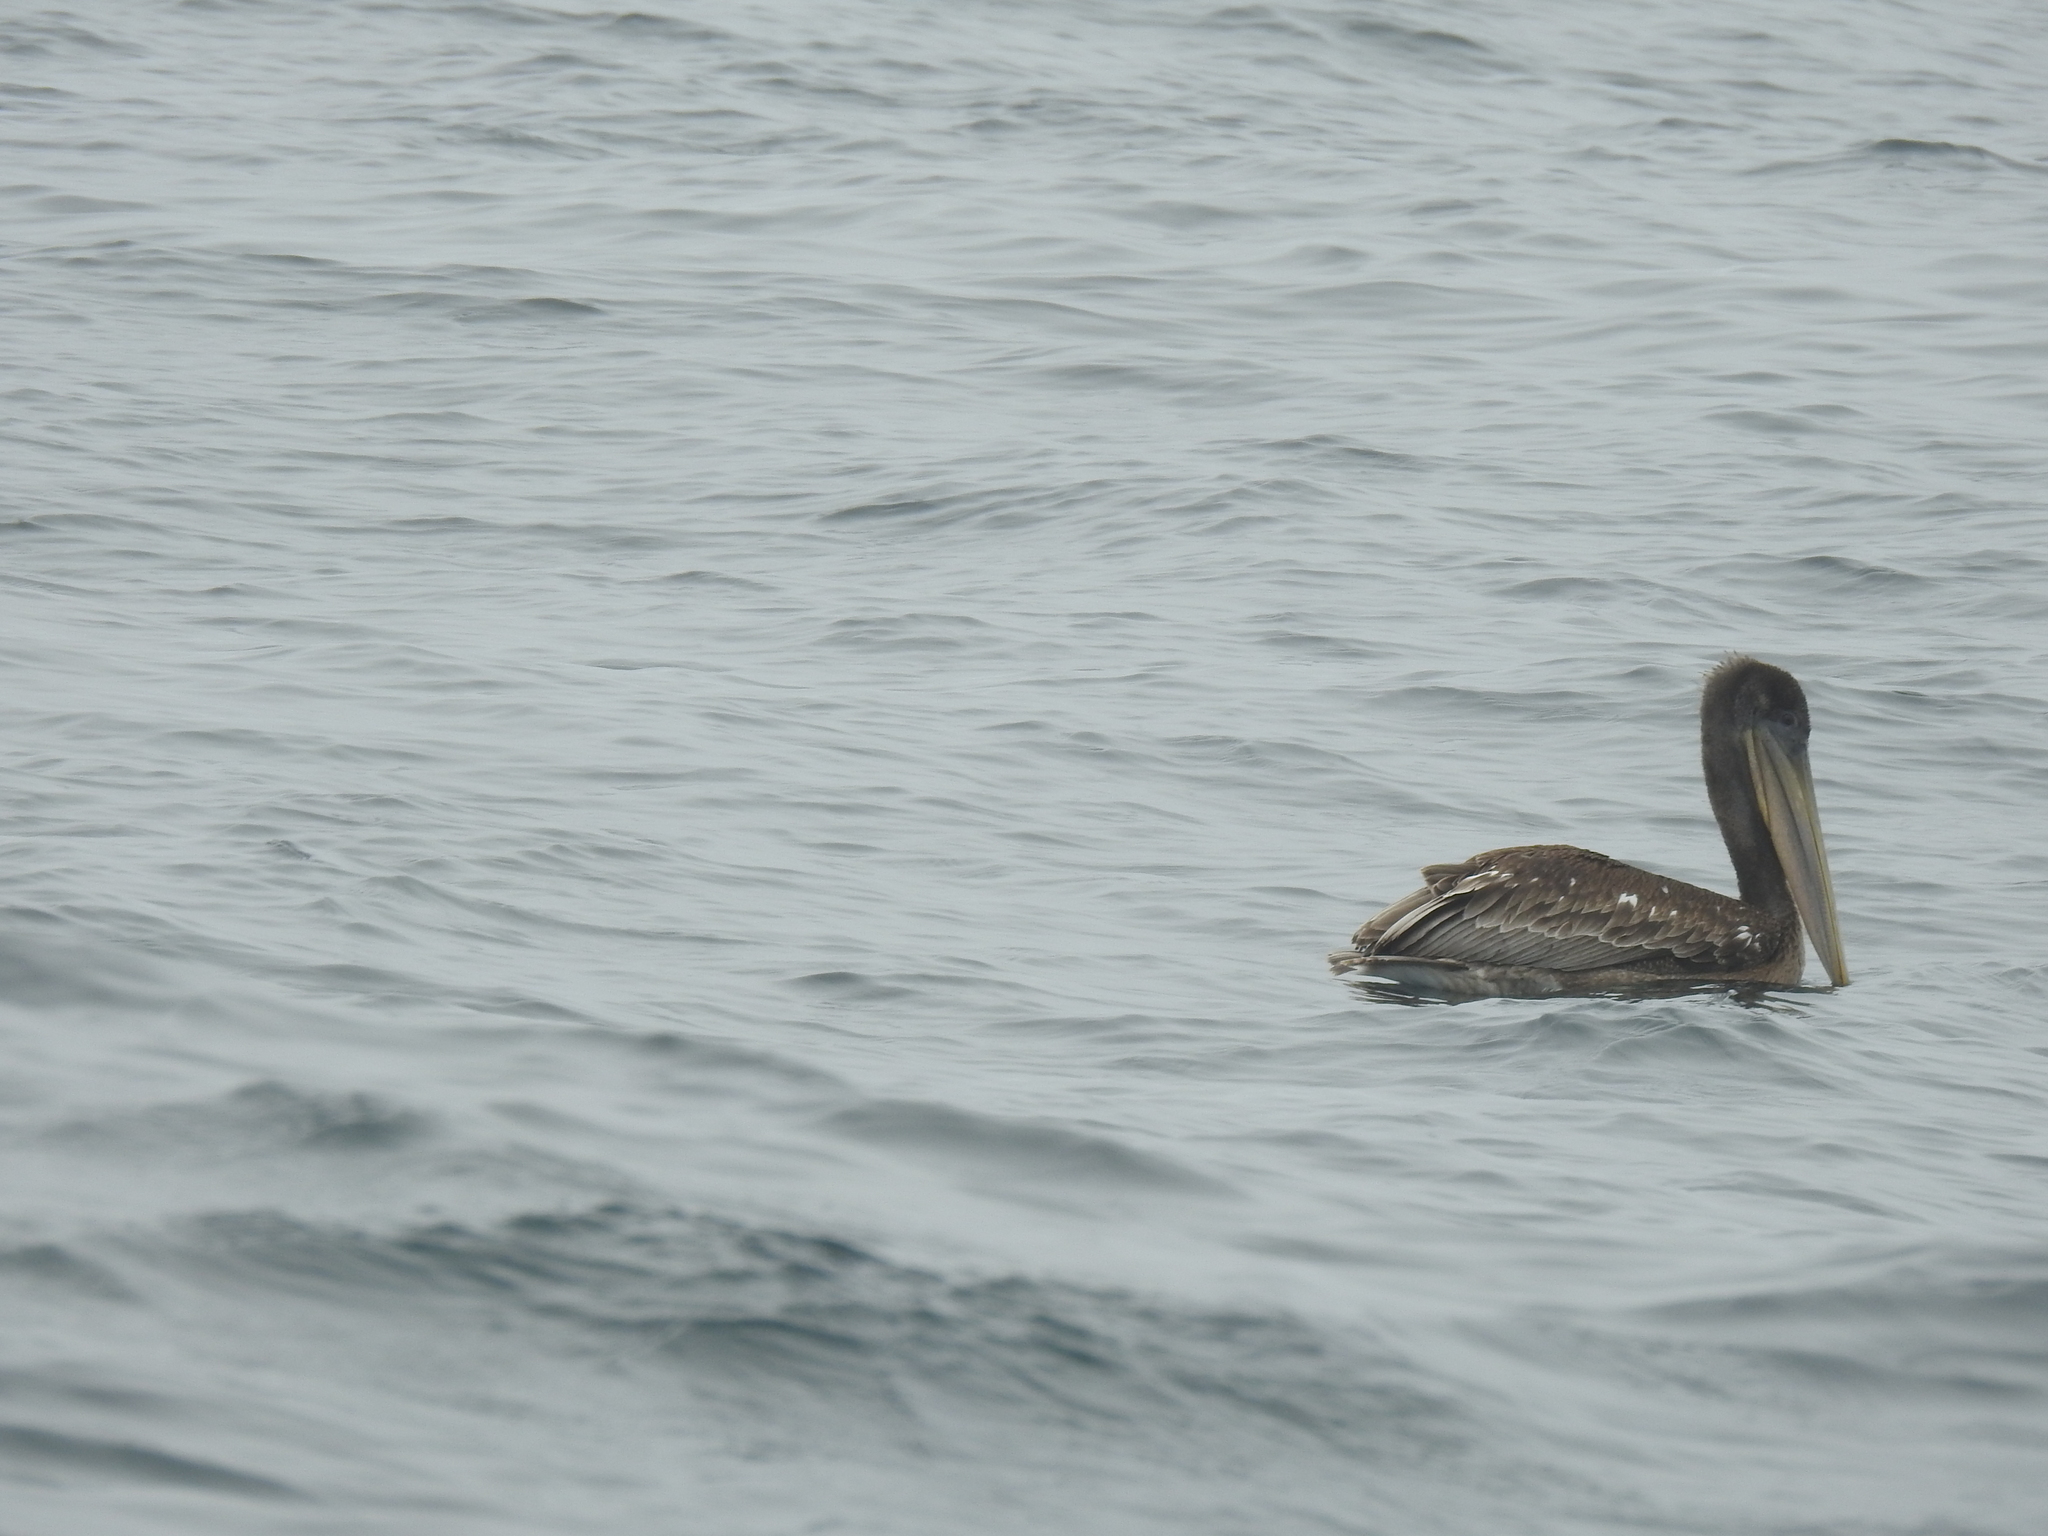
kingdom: Animalia
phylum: Chordata
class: Aves
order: Pelecaniformes
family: Pelecanidae
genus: Pelecanus
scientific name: Pelecanus occidentalis
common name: Brown pelican
